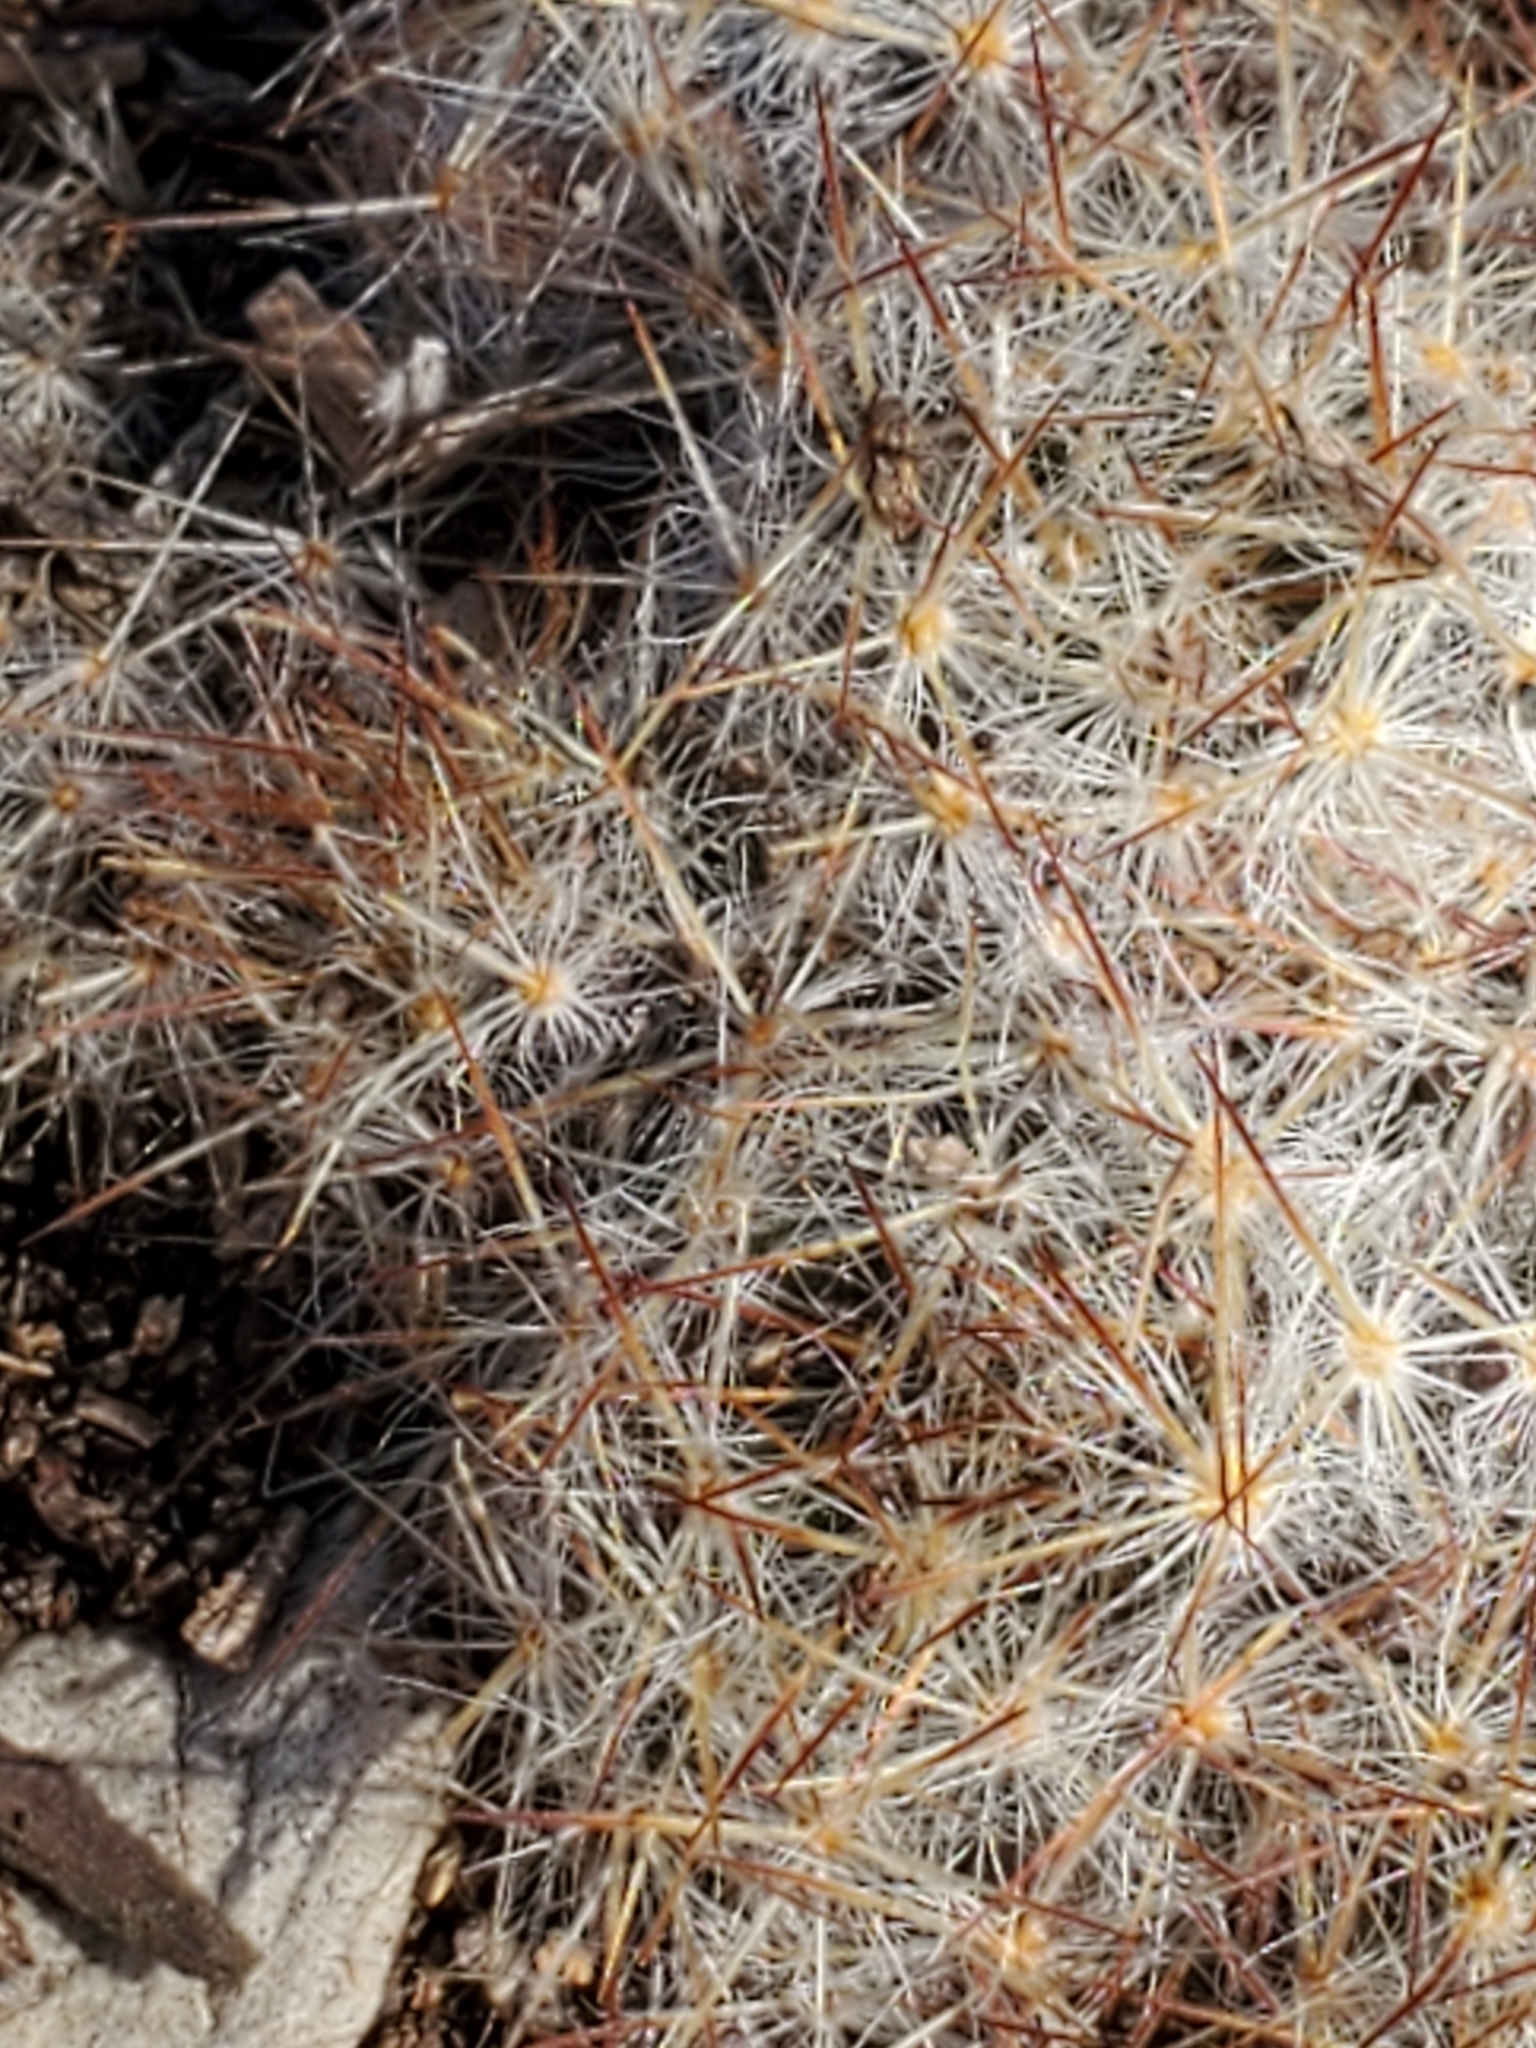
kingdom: Plantae
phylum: Tracheophyta
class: Magnoliopsida
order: Caryophyllales
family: Cactaceae
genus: Mammillaria
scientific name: Mammillaria prolifera
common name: Texas nipple cactus
